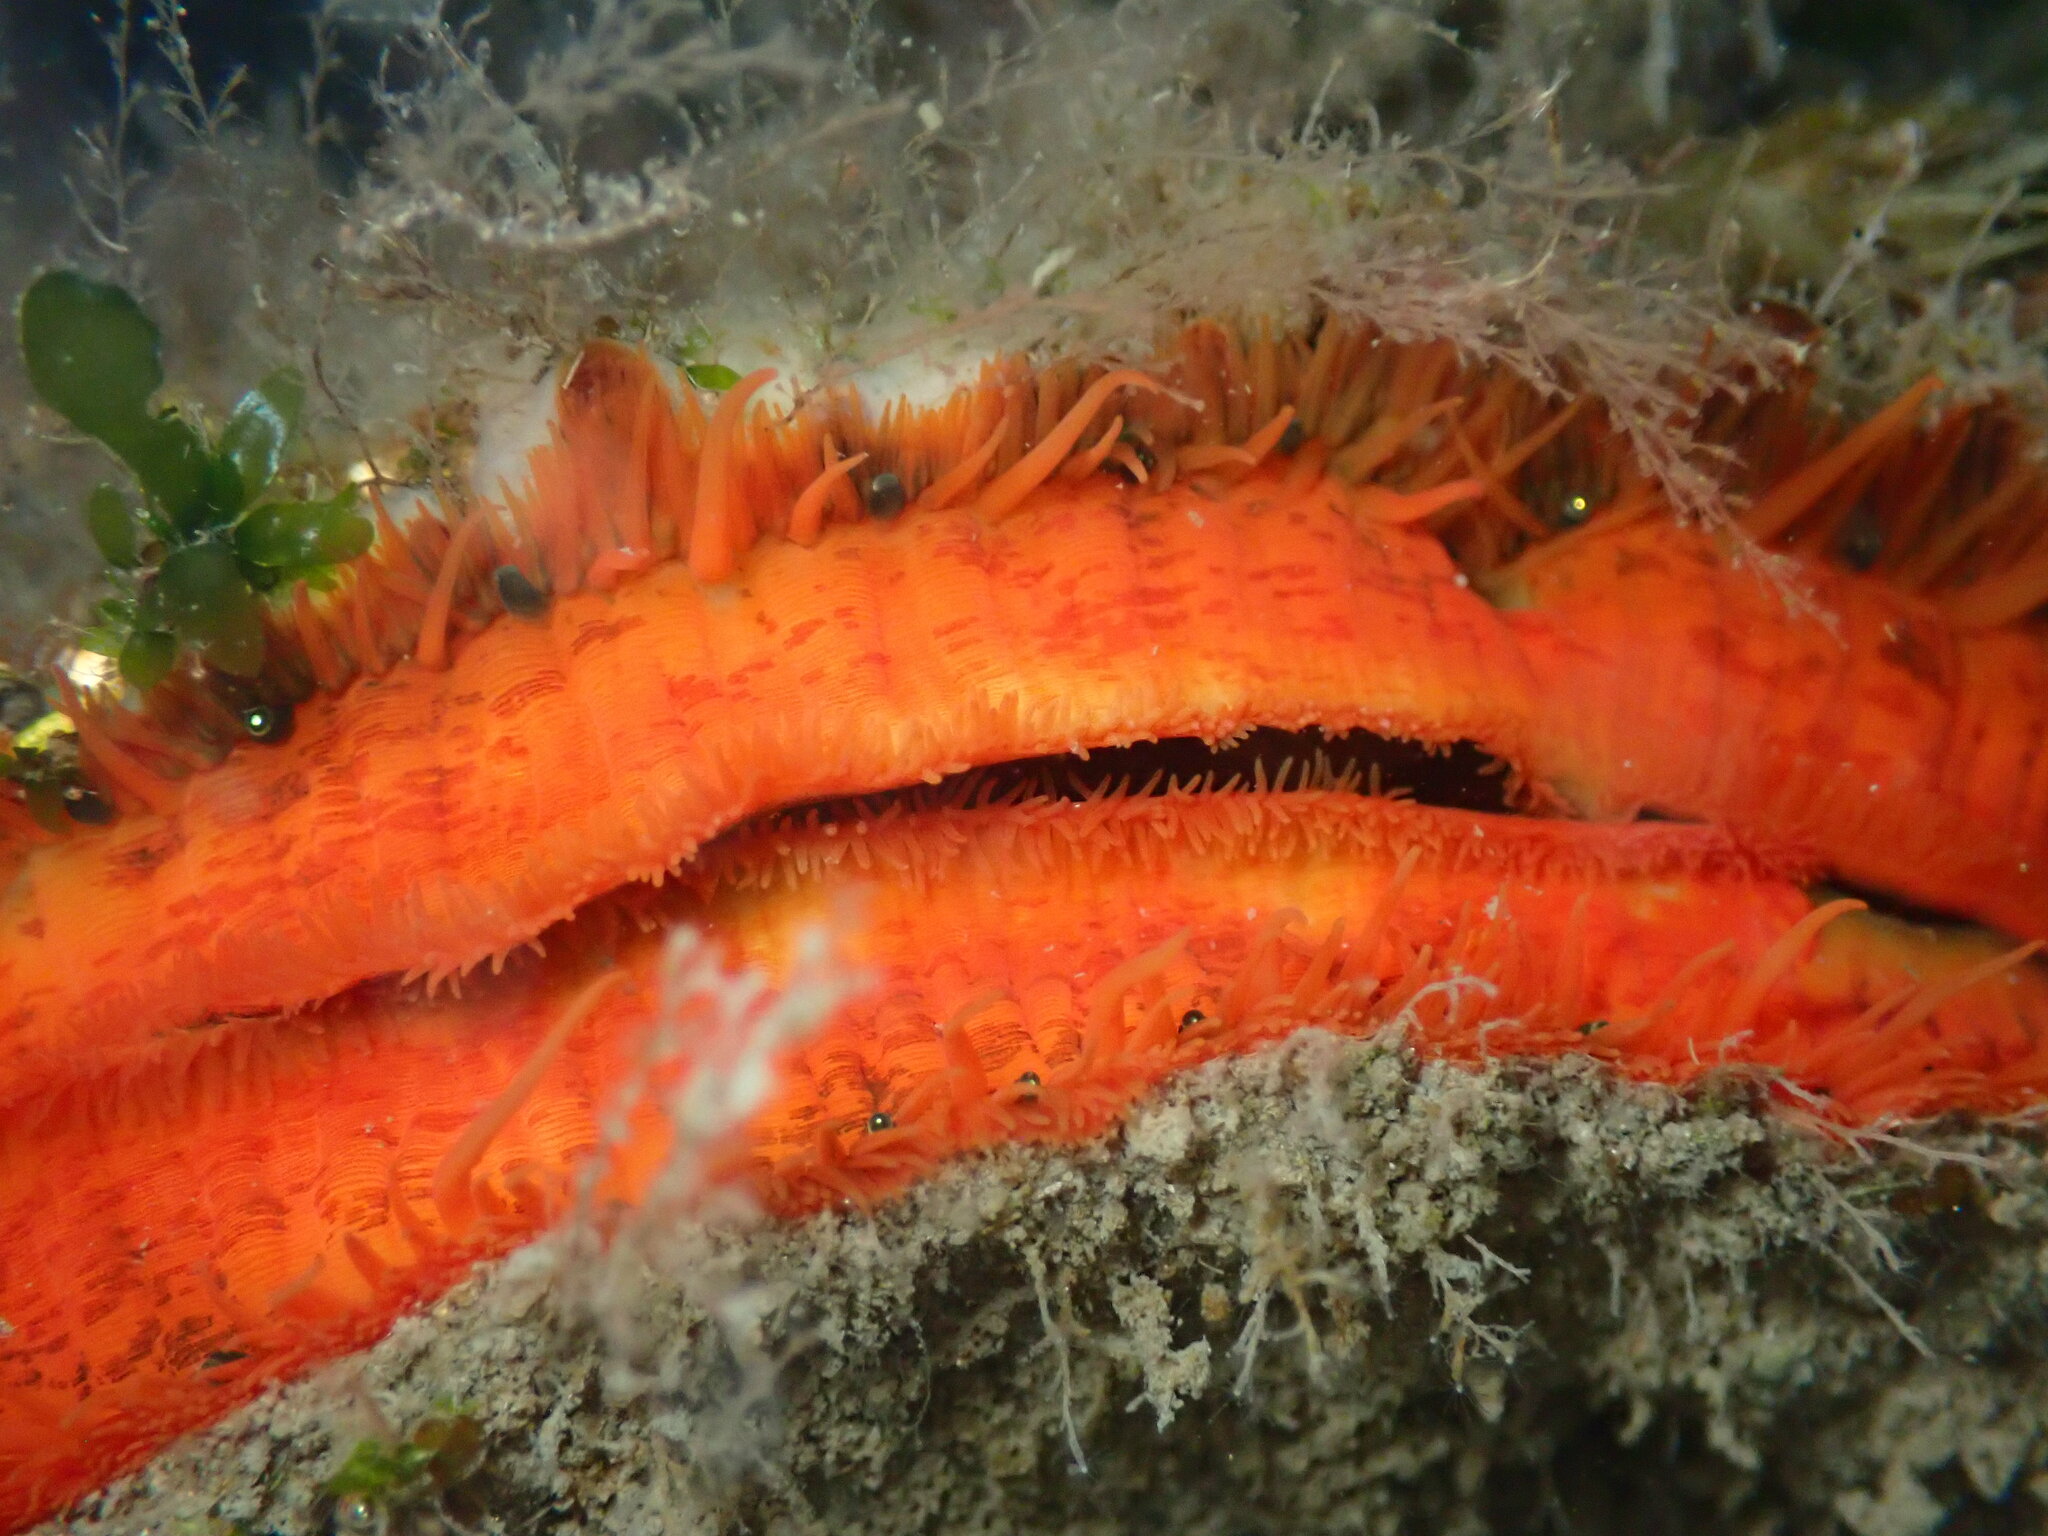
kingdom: Animalia
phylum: Mollusca
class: Bivalvia
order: Pectinida
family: Pectinidae
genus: Crassadoma
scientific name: Crassadoma gigantea
